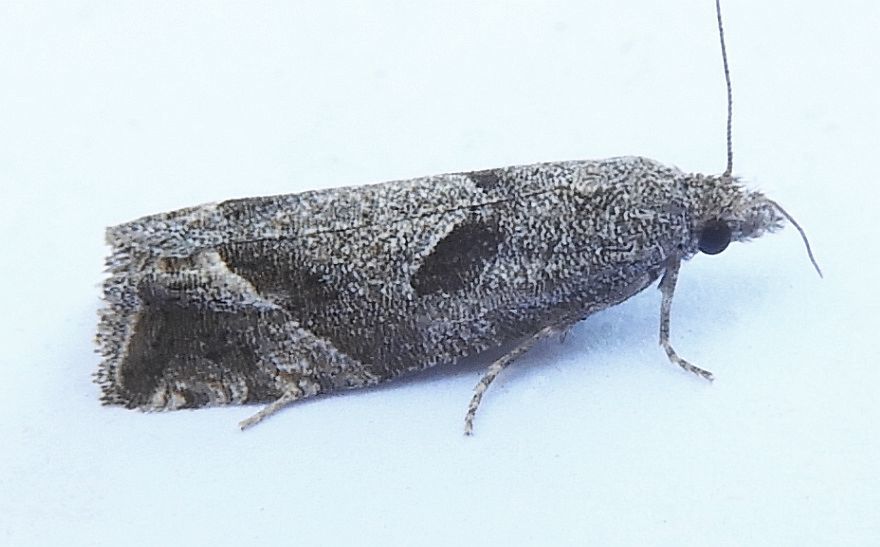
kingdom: Animalia
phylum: Arthropoda
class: Insecta
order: Lepidoptera
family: Tortricidae
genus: Pelochrista
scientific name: Pelochrista corosana
